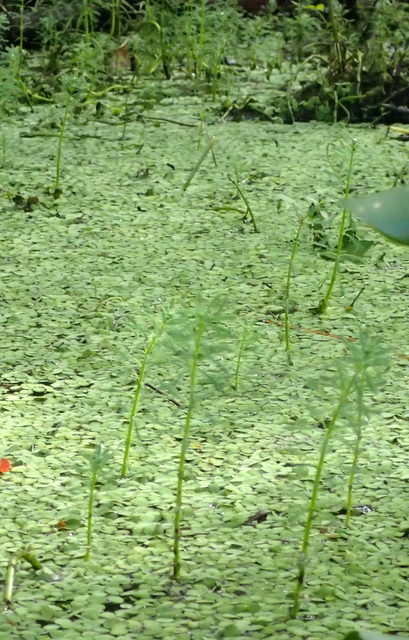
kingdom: Plantae
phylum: Tracheophyta
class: Magnoliopsida
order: Saxifragales
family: Haloragaceae
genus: Myriophyllum
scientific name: Myriophyllum aquaticum
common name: Parrot's feather
